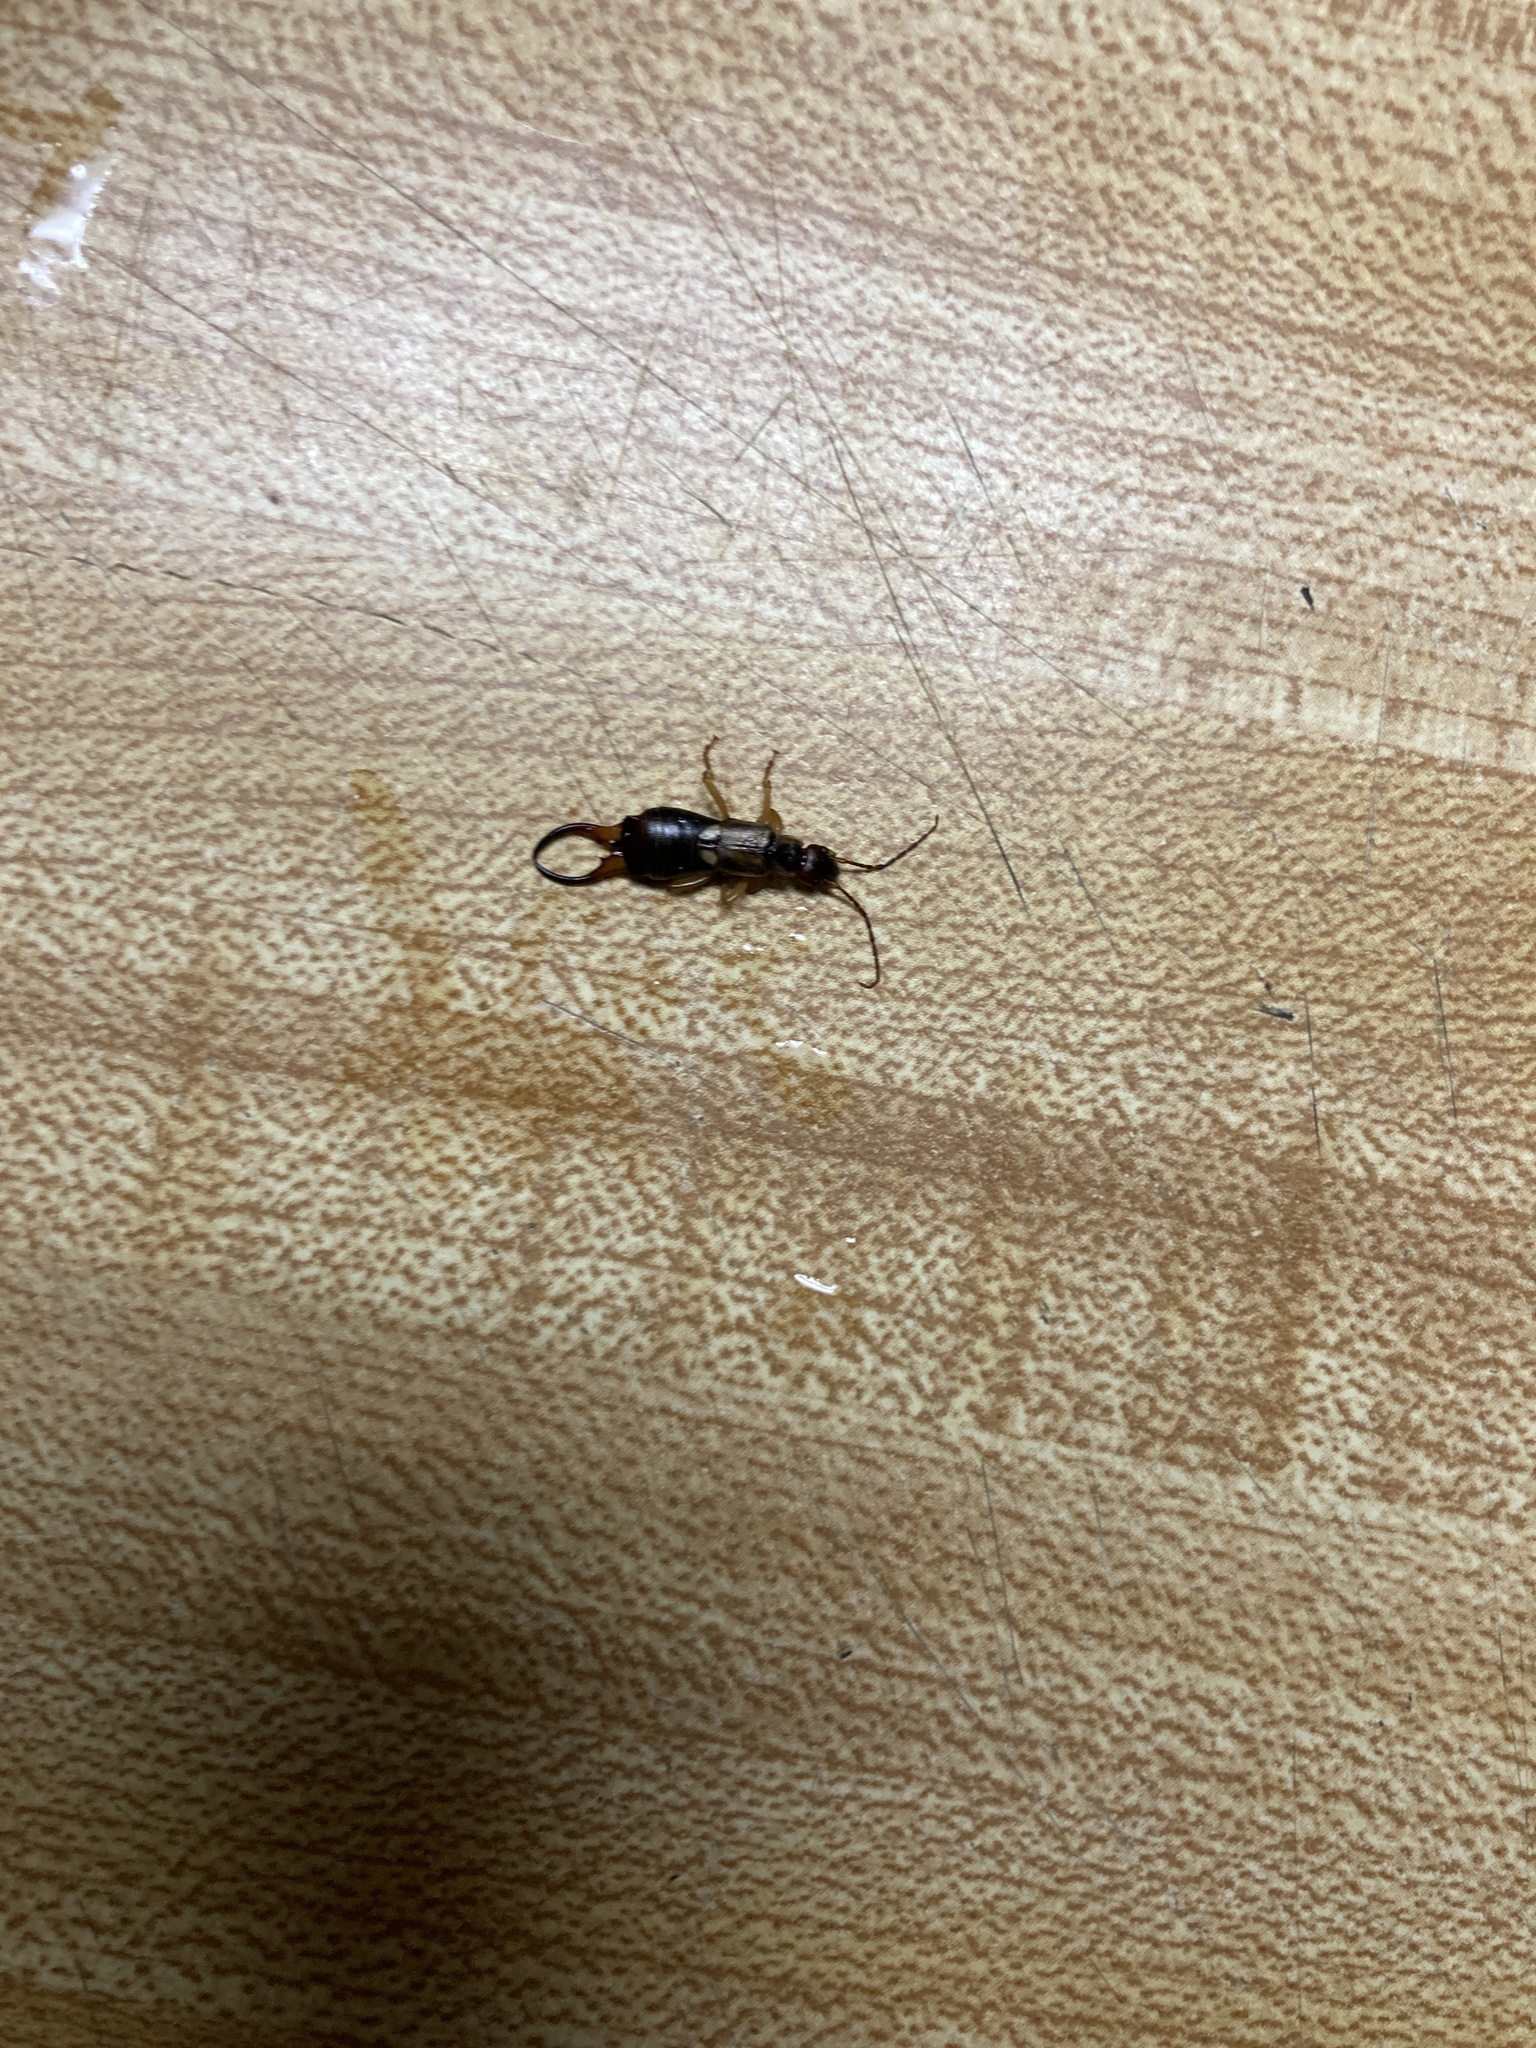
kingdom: Animalia
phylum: Arthropoda
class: Insecta
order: Dermaptera
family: Forficulidae
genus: Forficula
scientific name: Forficula
